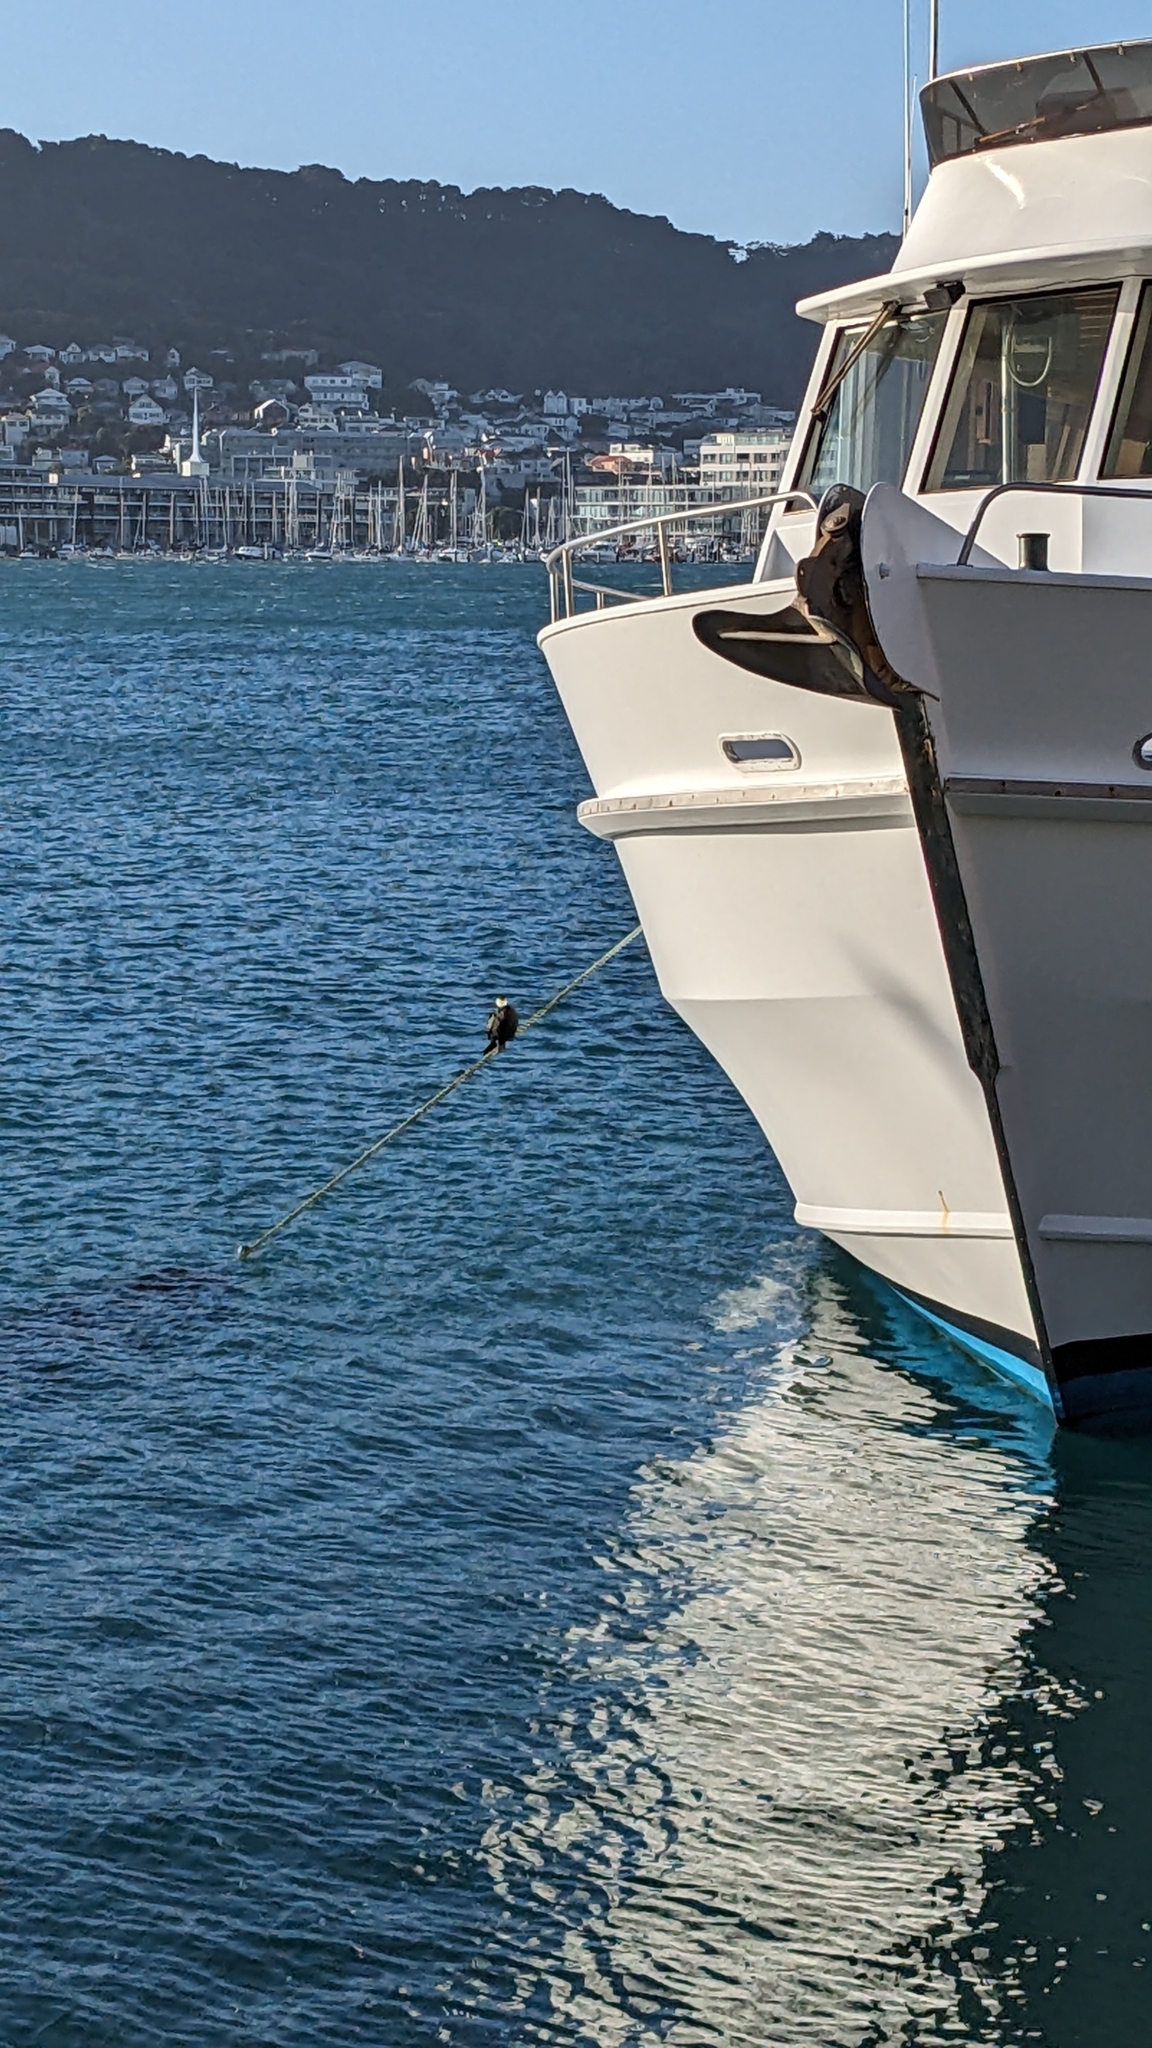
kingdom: Animalia
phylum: Chordata
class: Aves
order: Suliformes
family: Phalacrocoracidae
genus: Microcarbo
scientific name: Microcarbo melanoleucos
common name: Little pied cormorant
